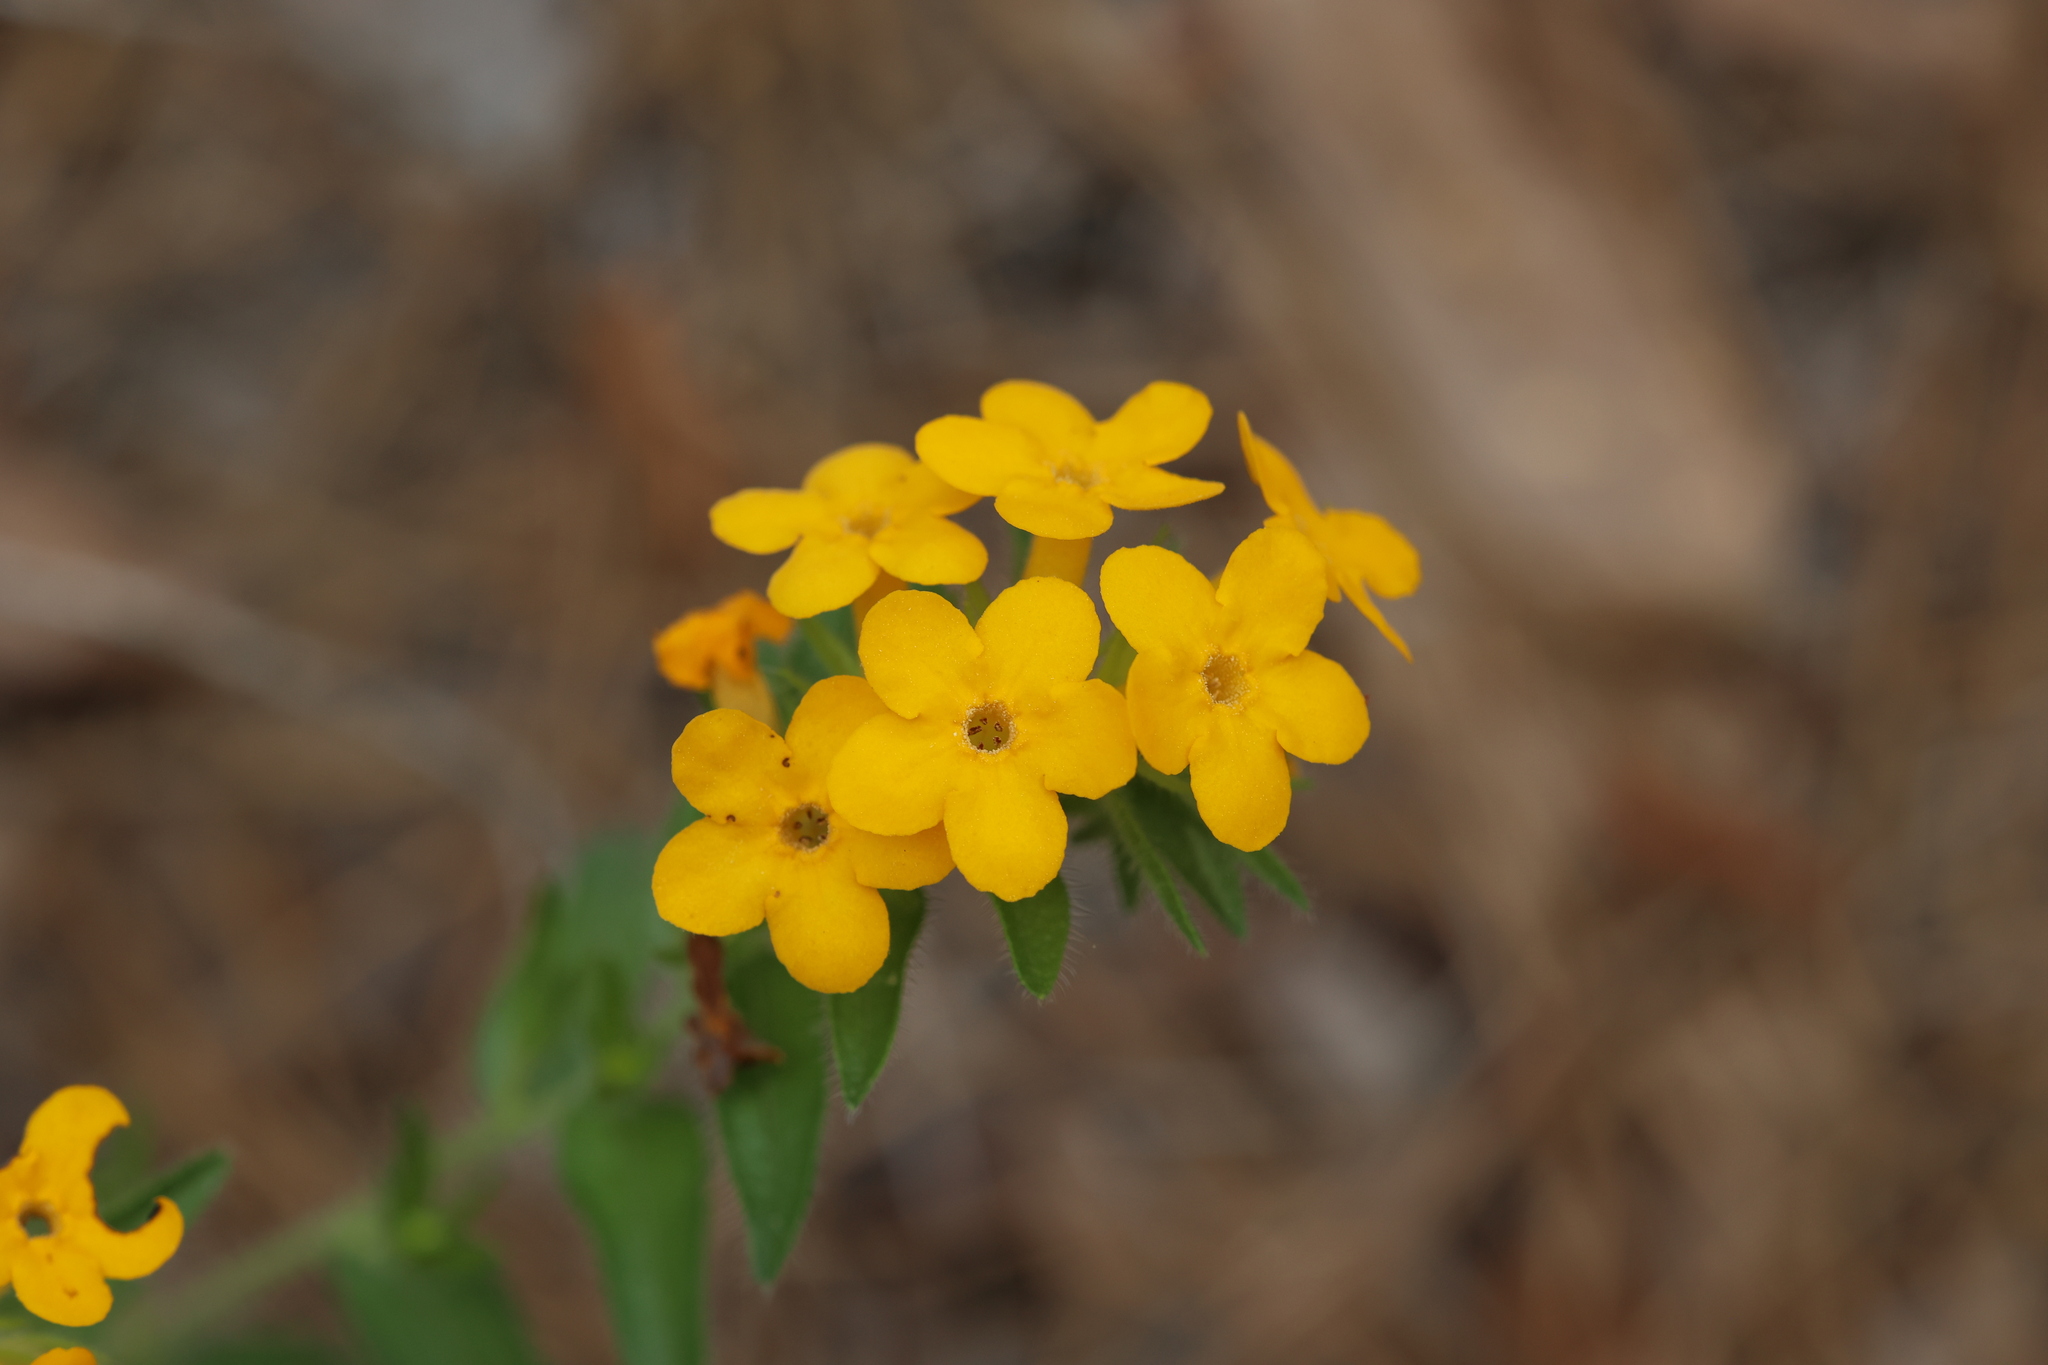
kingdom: Plantae
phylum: Tracheophyta
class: Magnoliopsida
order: Boraginales
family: Boraginaceae
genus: Lithospermum
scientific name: Lithospermum caroliniense
